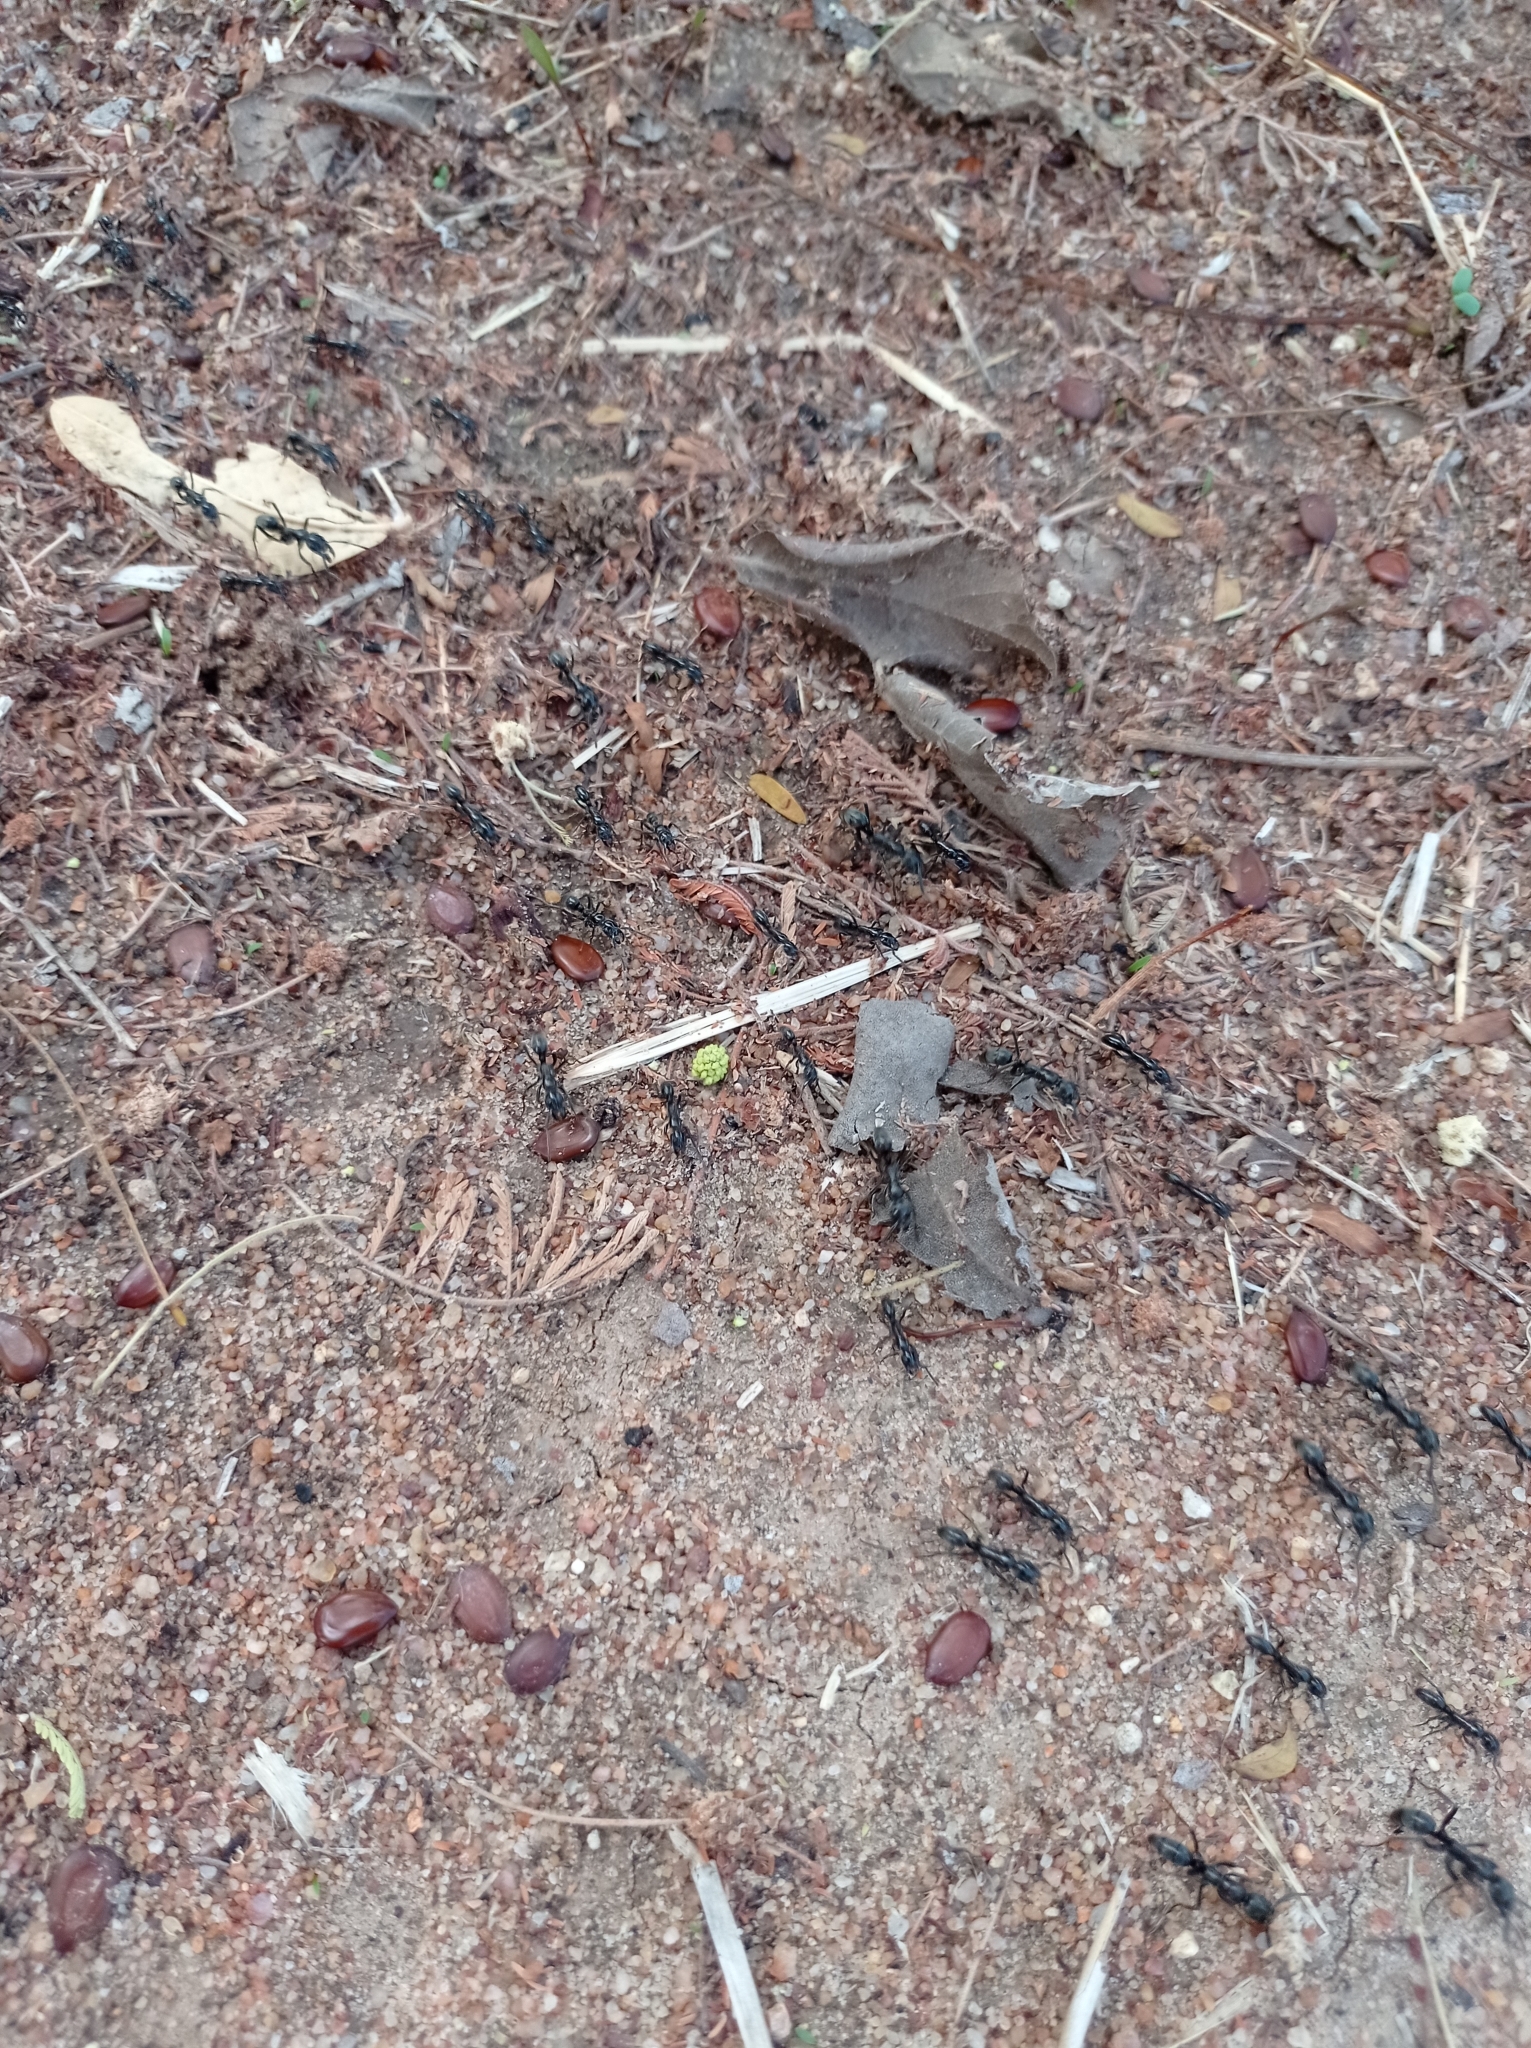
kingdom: Animalia
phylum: Arthropoda
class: Insecta
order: Hymenoptera
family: Formicidae
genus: Megaponera
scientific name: Megaponera analis
